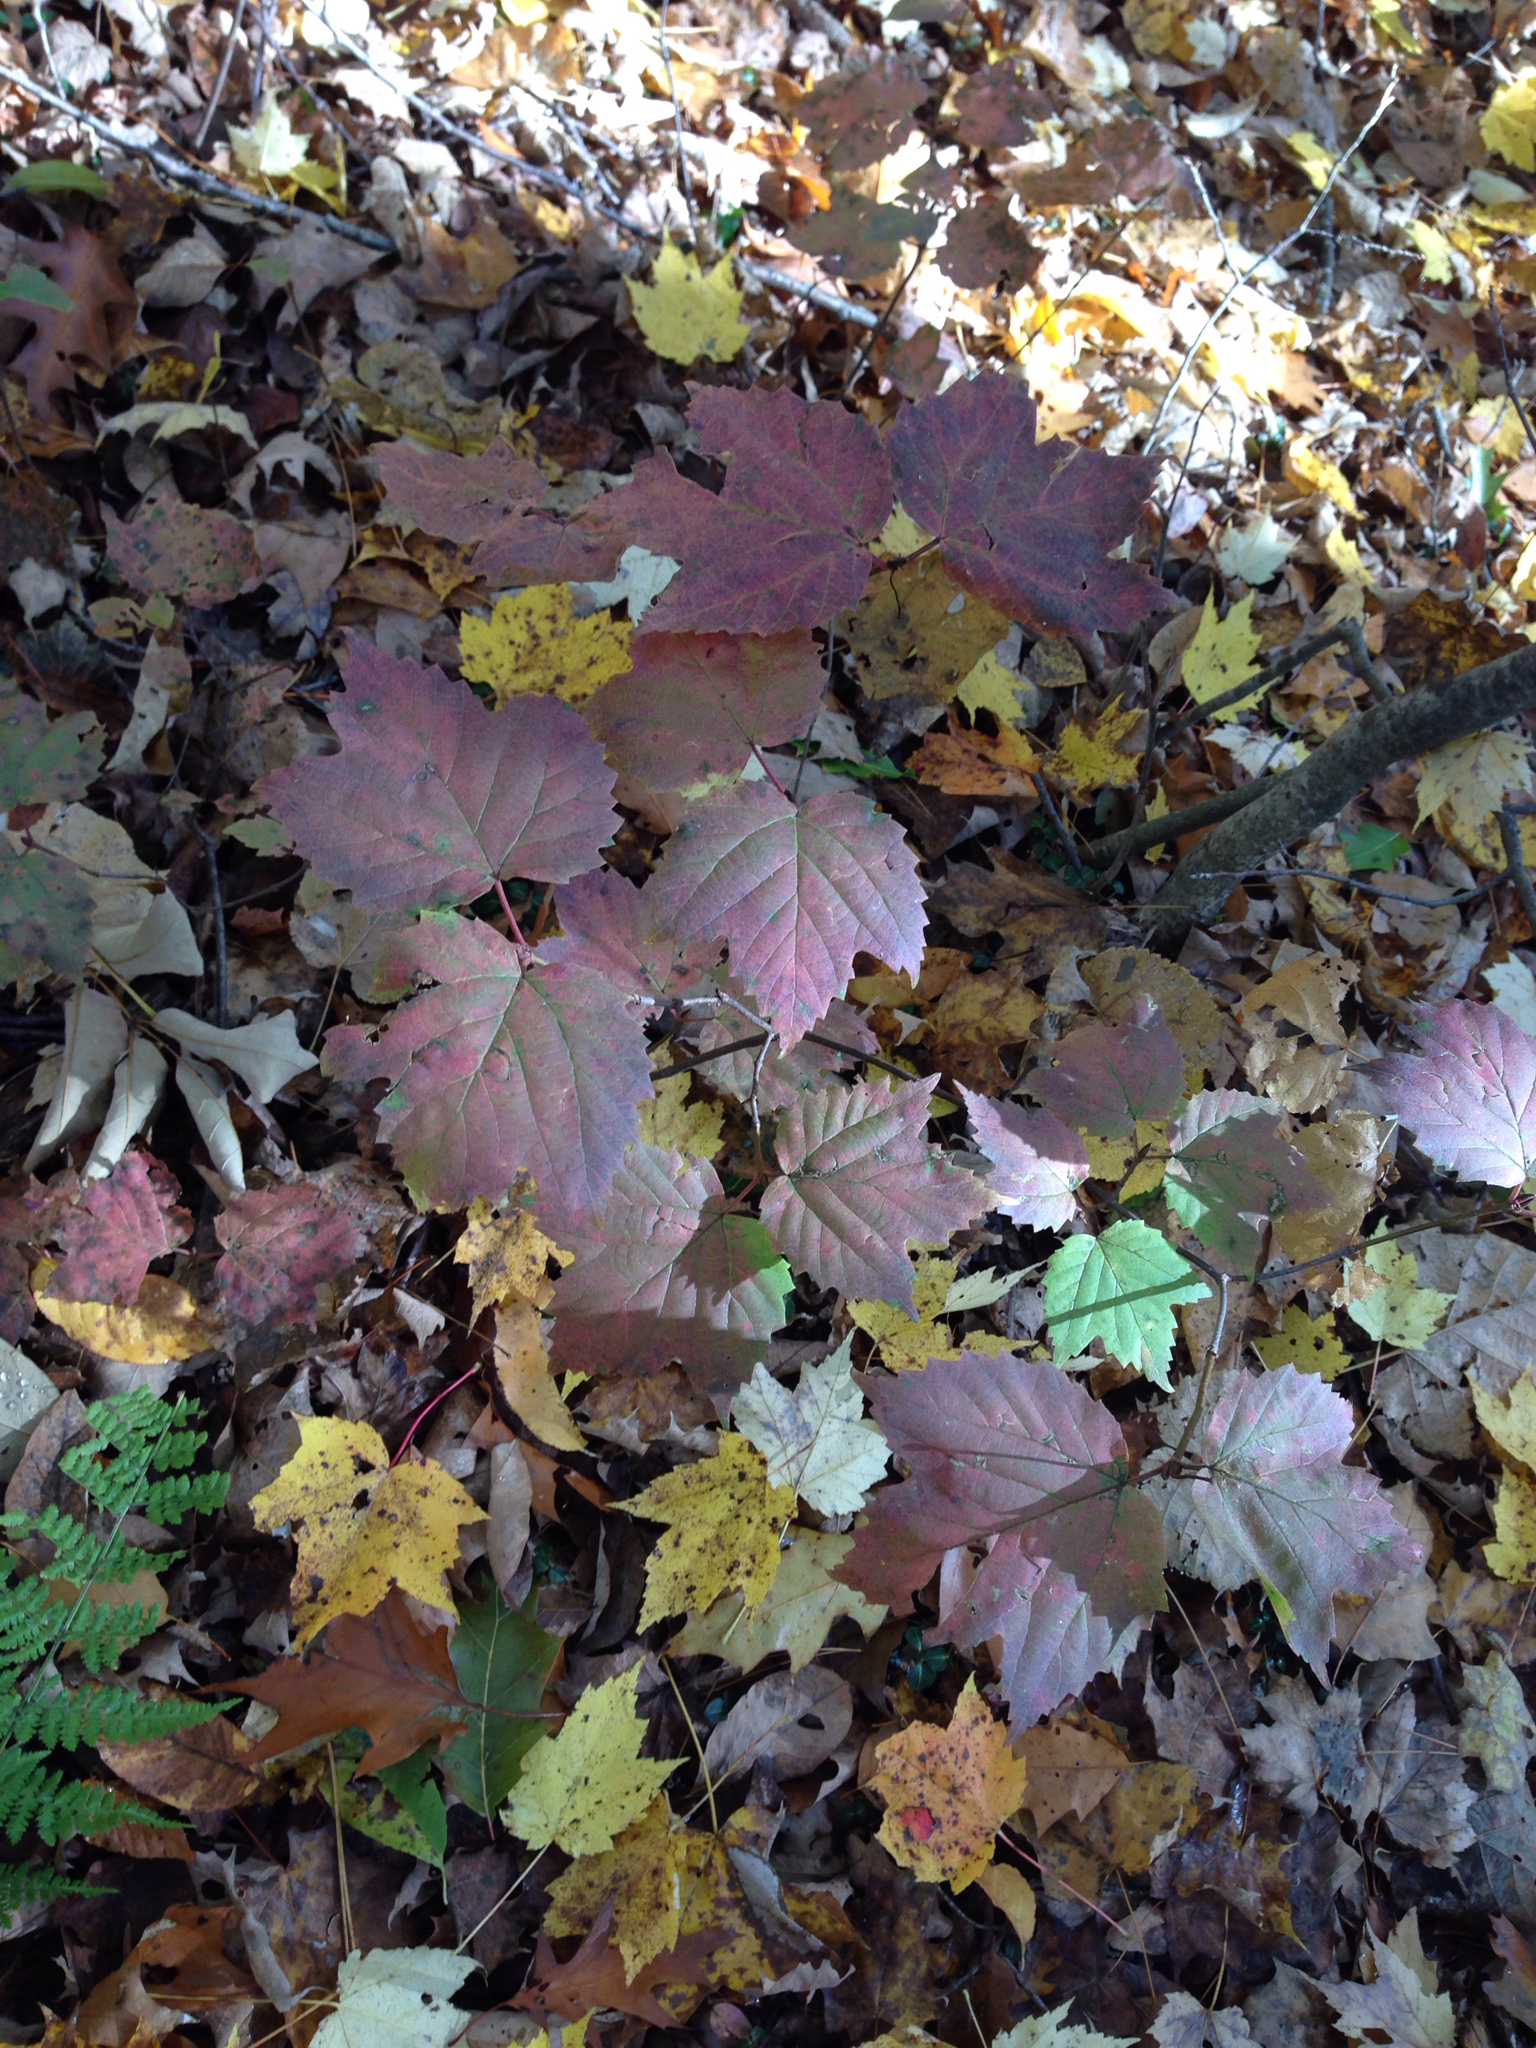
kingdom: Plantae
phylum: Tracheophyta
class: Magnoliopsida
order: Dipsacales
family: Viburnaceae
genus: Viburnum
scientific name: Viburnum acerifolium
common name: Dockmackie
